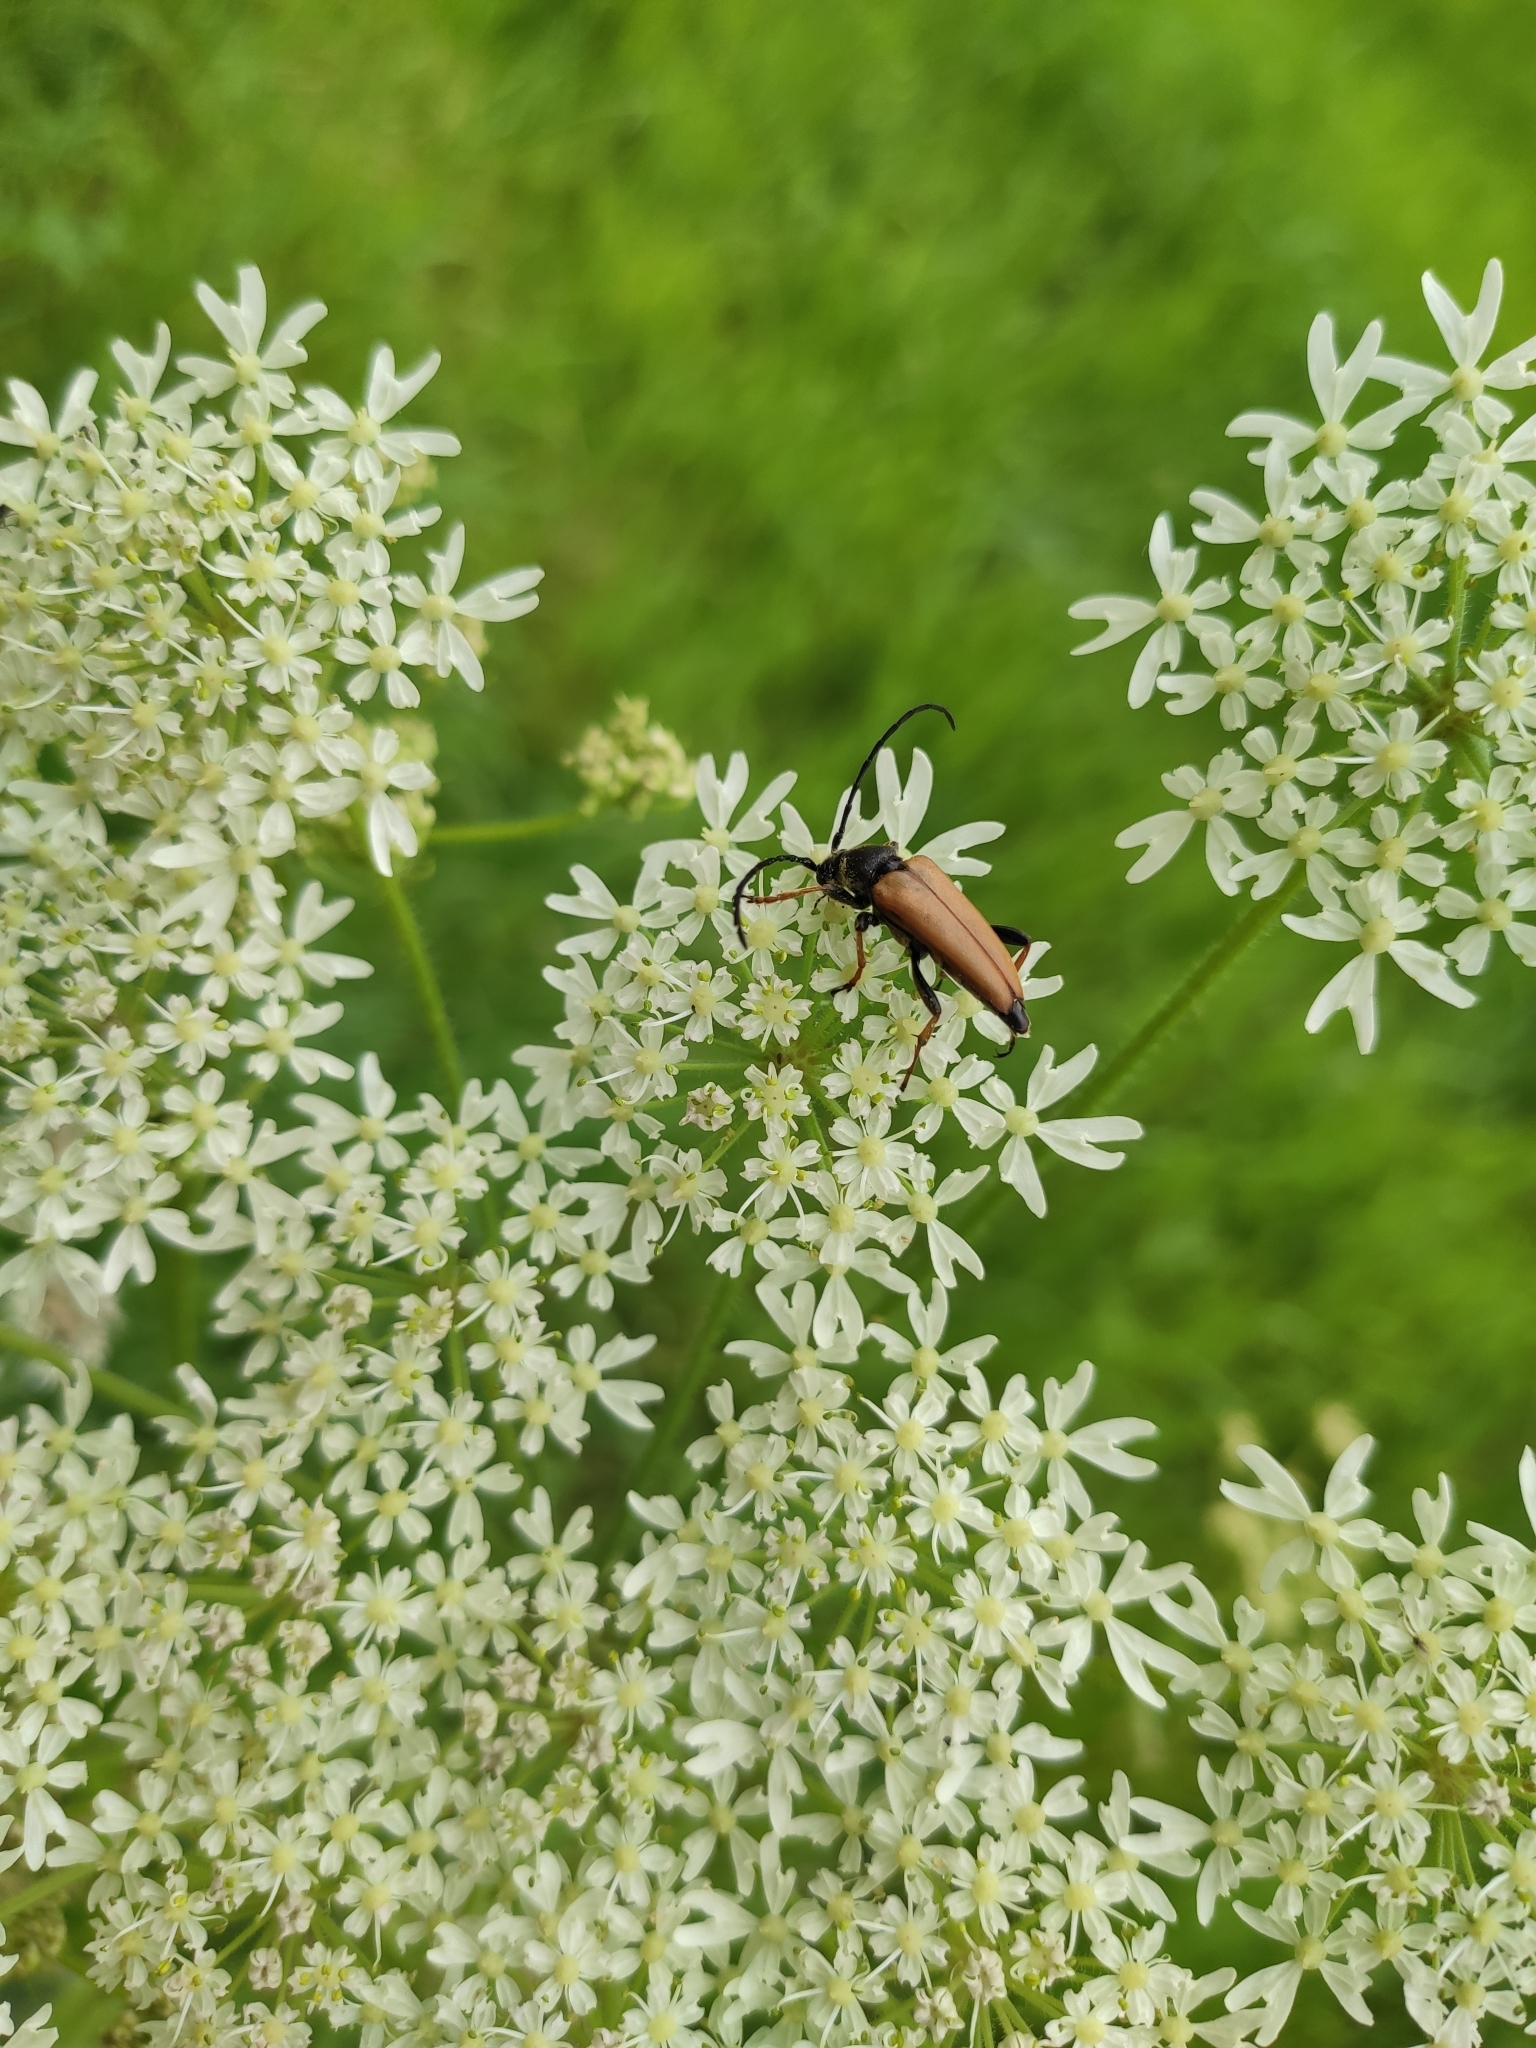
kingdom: Animalia
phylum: Arthropoda
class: Insecta
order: Coleoptera
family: Cerambycidae
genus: Stictoleptura
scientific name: Stictoleptura rubra
